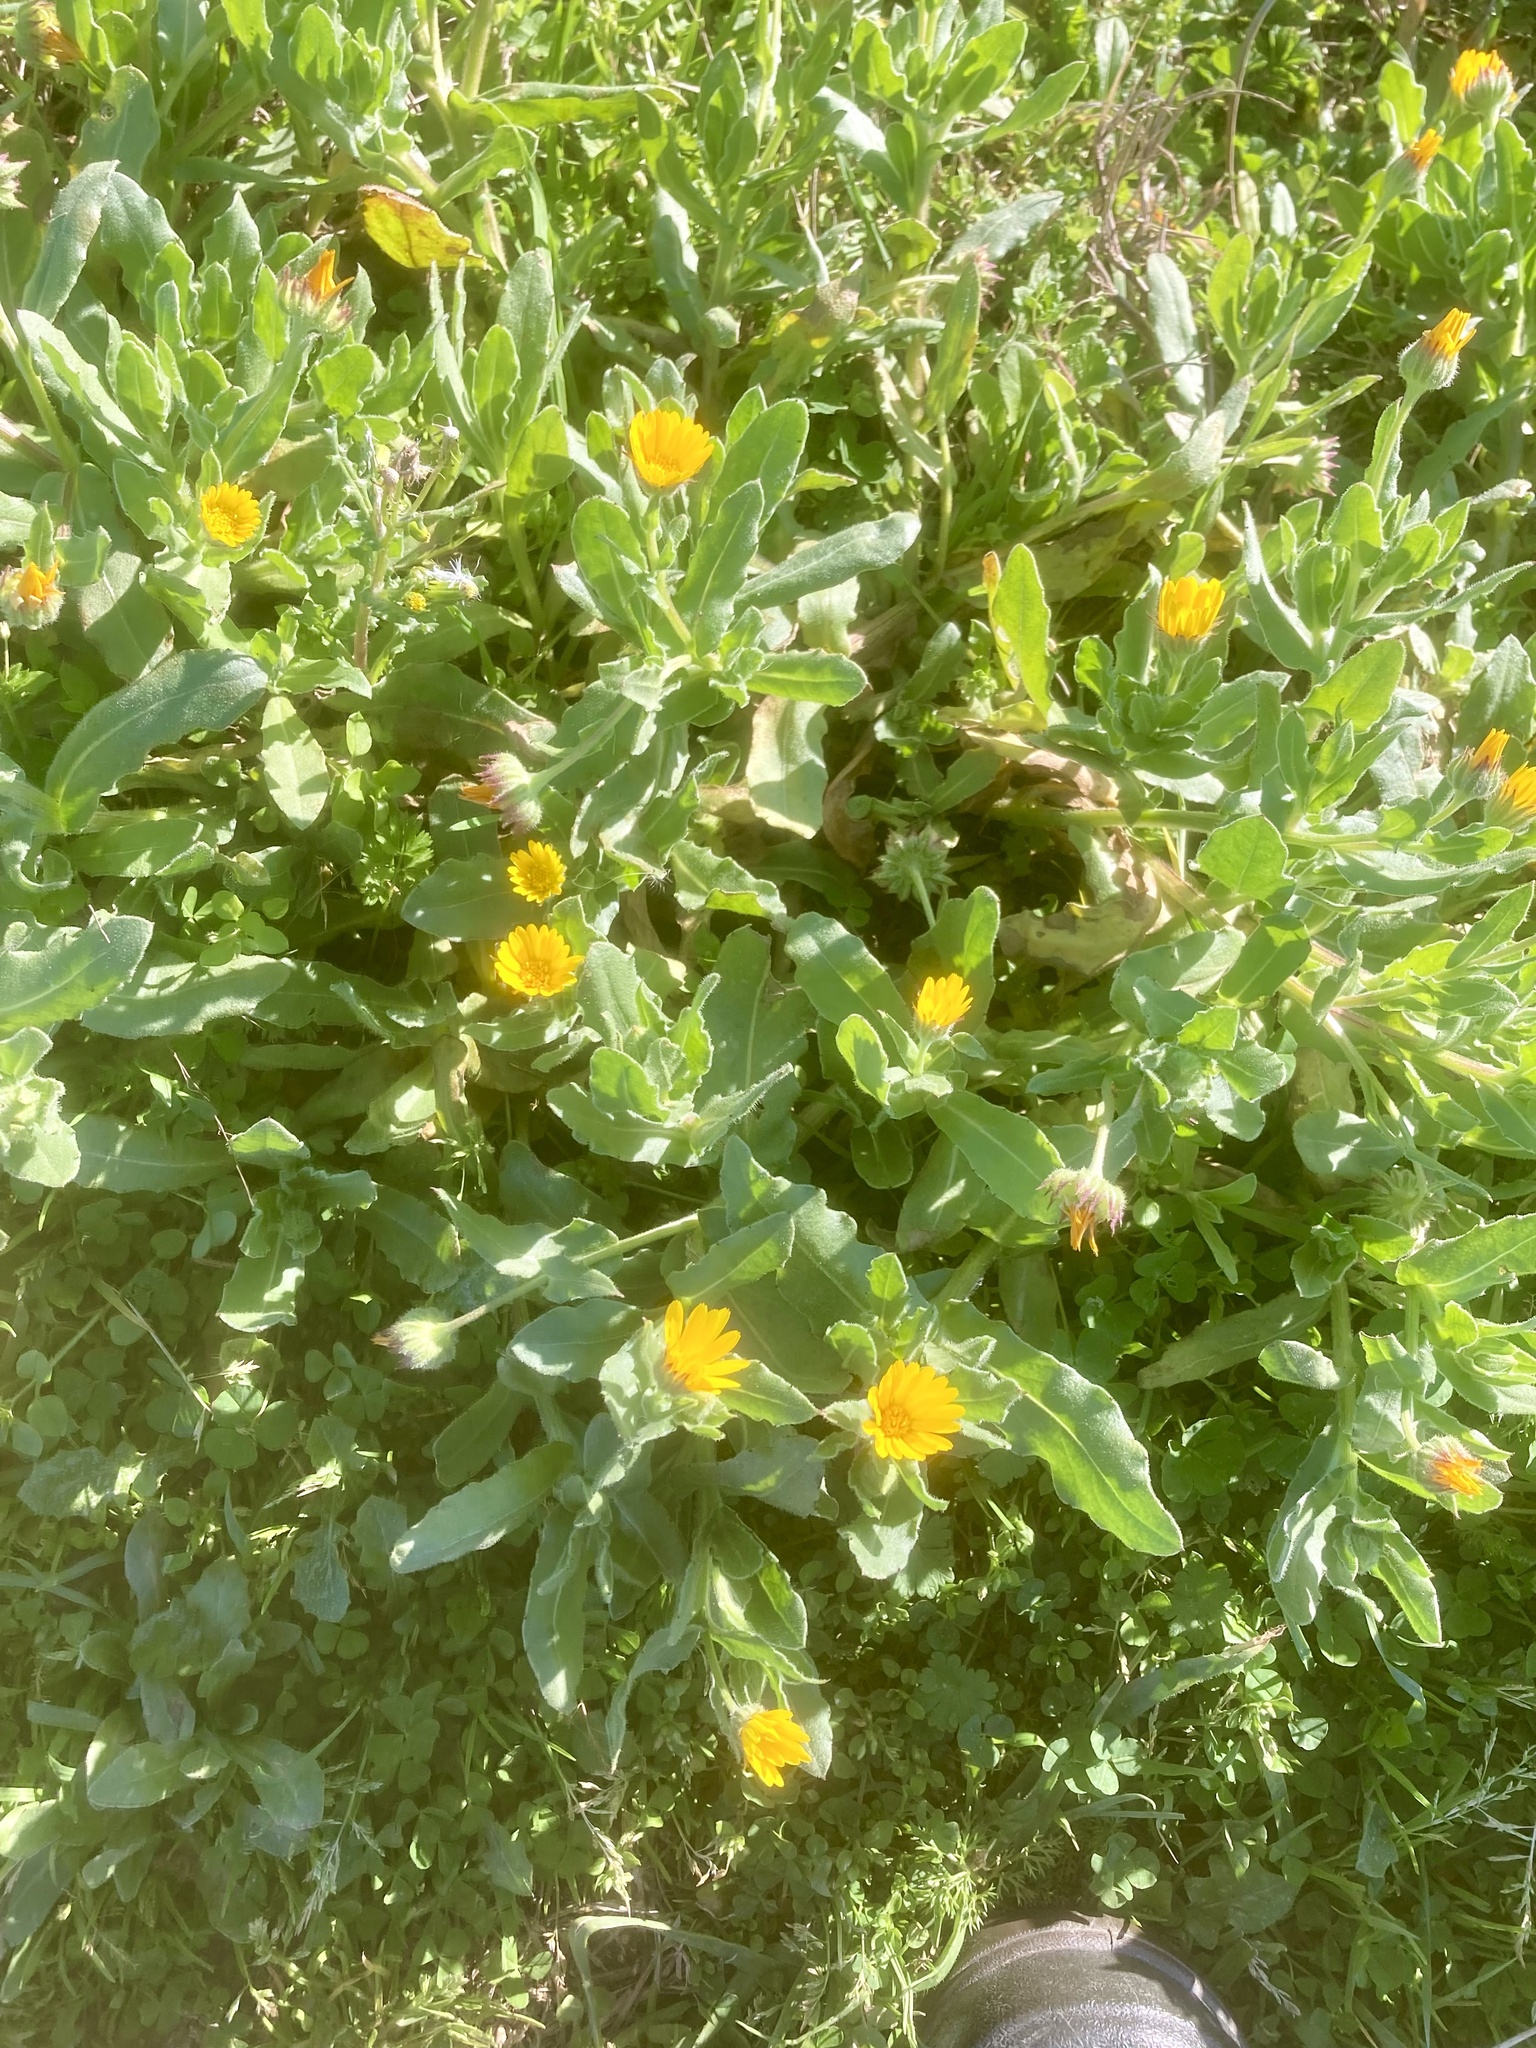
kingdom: Plantae
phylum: Tracheophyta
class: Magnoliopsida
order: Asterales
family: Asteraceae
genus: Calendula
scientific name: Calendula arvensis
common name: Field marigold
